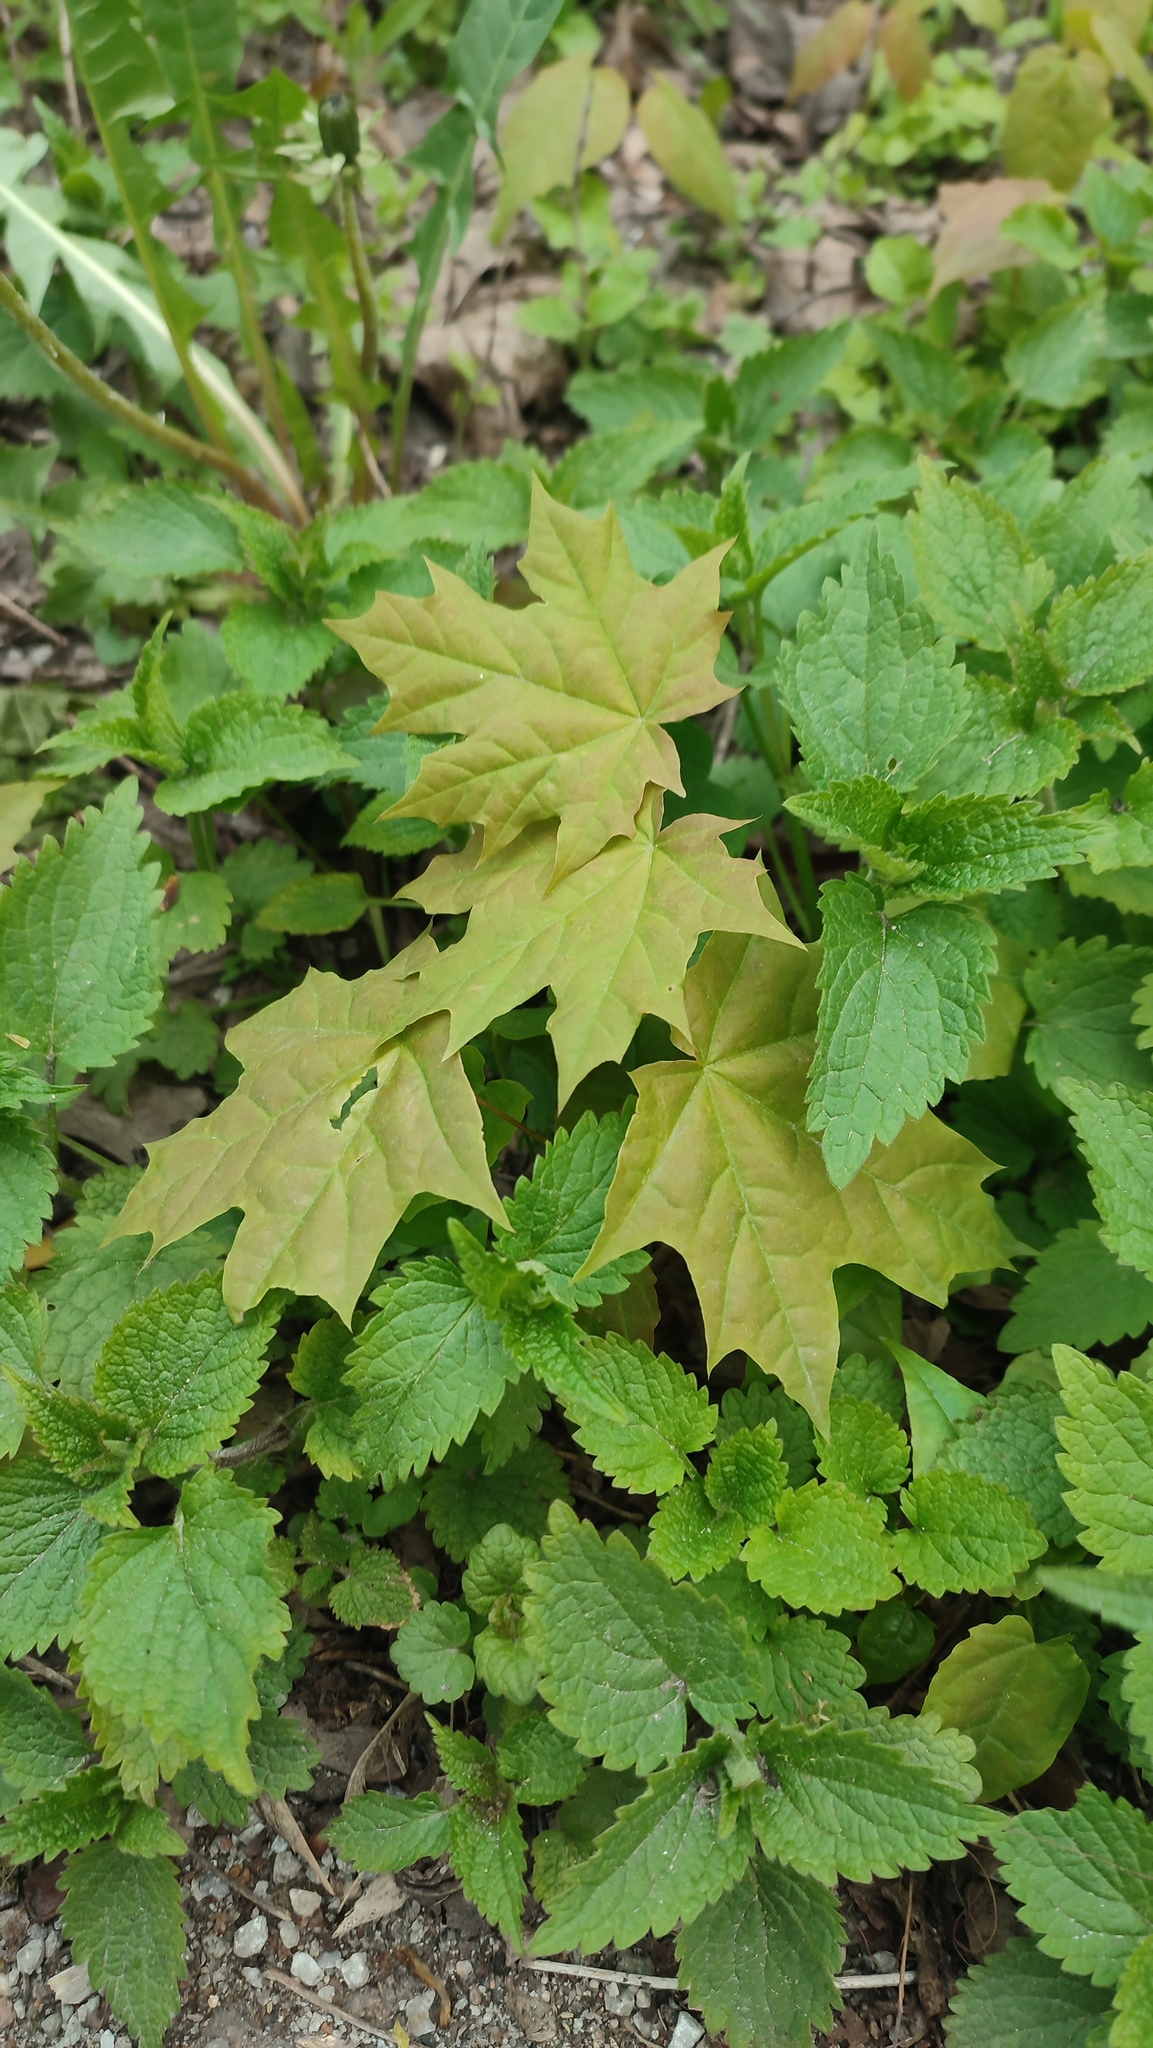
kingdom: Plantae
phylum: Tracheophyta
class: Magnoliopsida
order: Sapindales
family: Sapindaceae
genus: Acer
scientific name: Acer platanoides
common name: Norway maple
